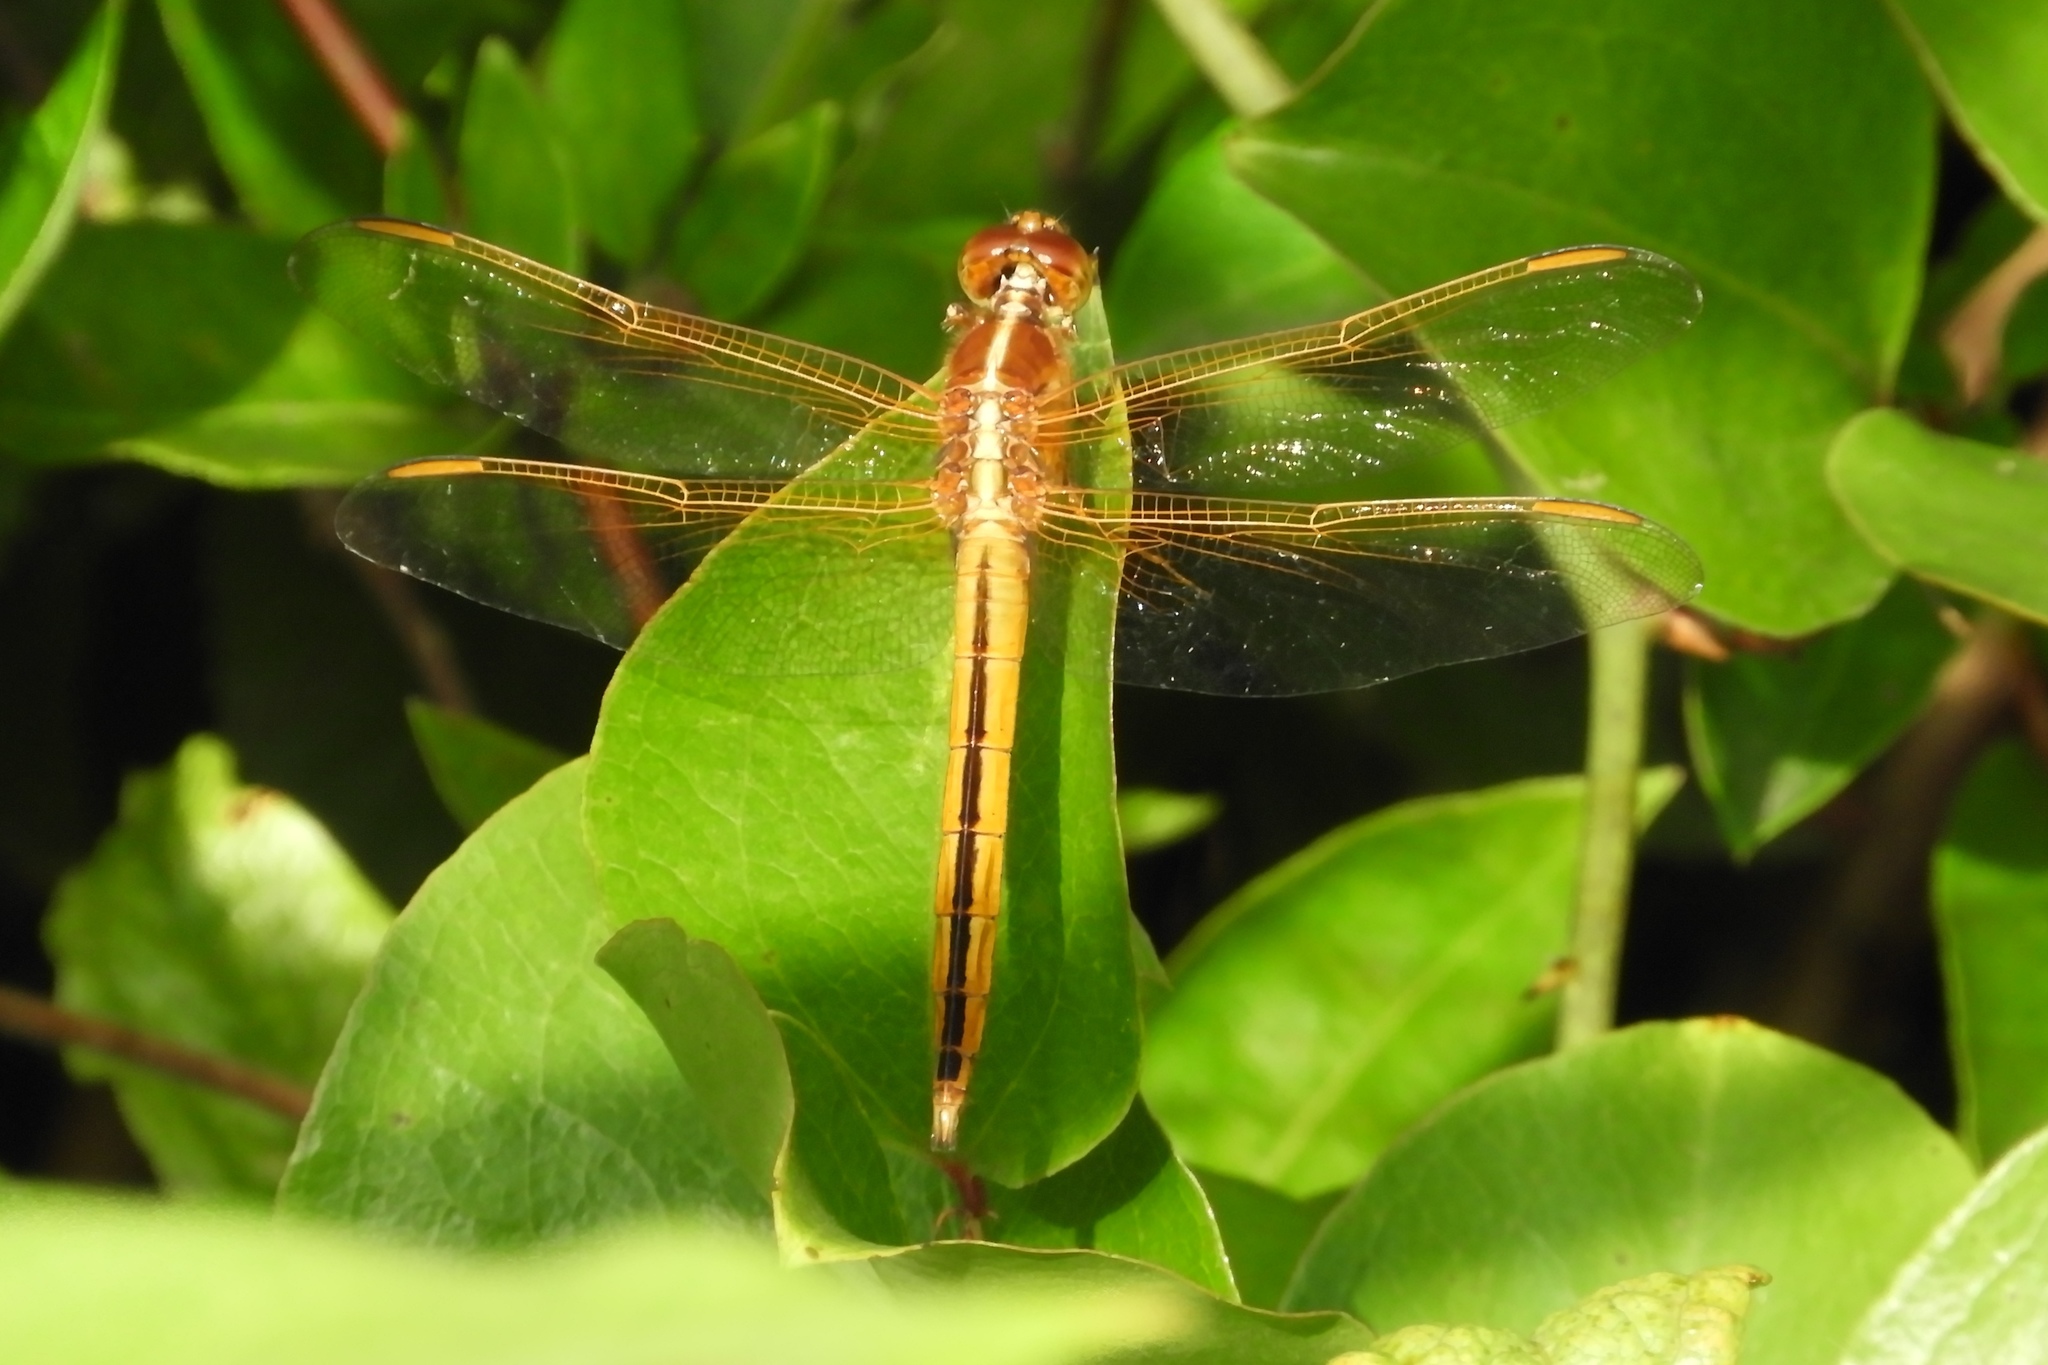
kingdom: Animalia
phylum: Arthropoda
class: Insecta
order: Odonata
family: Libellulidae
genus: Libellula
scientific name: Libellula needhami
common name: Needham's skimmer
